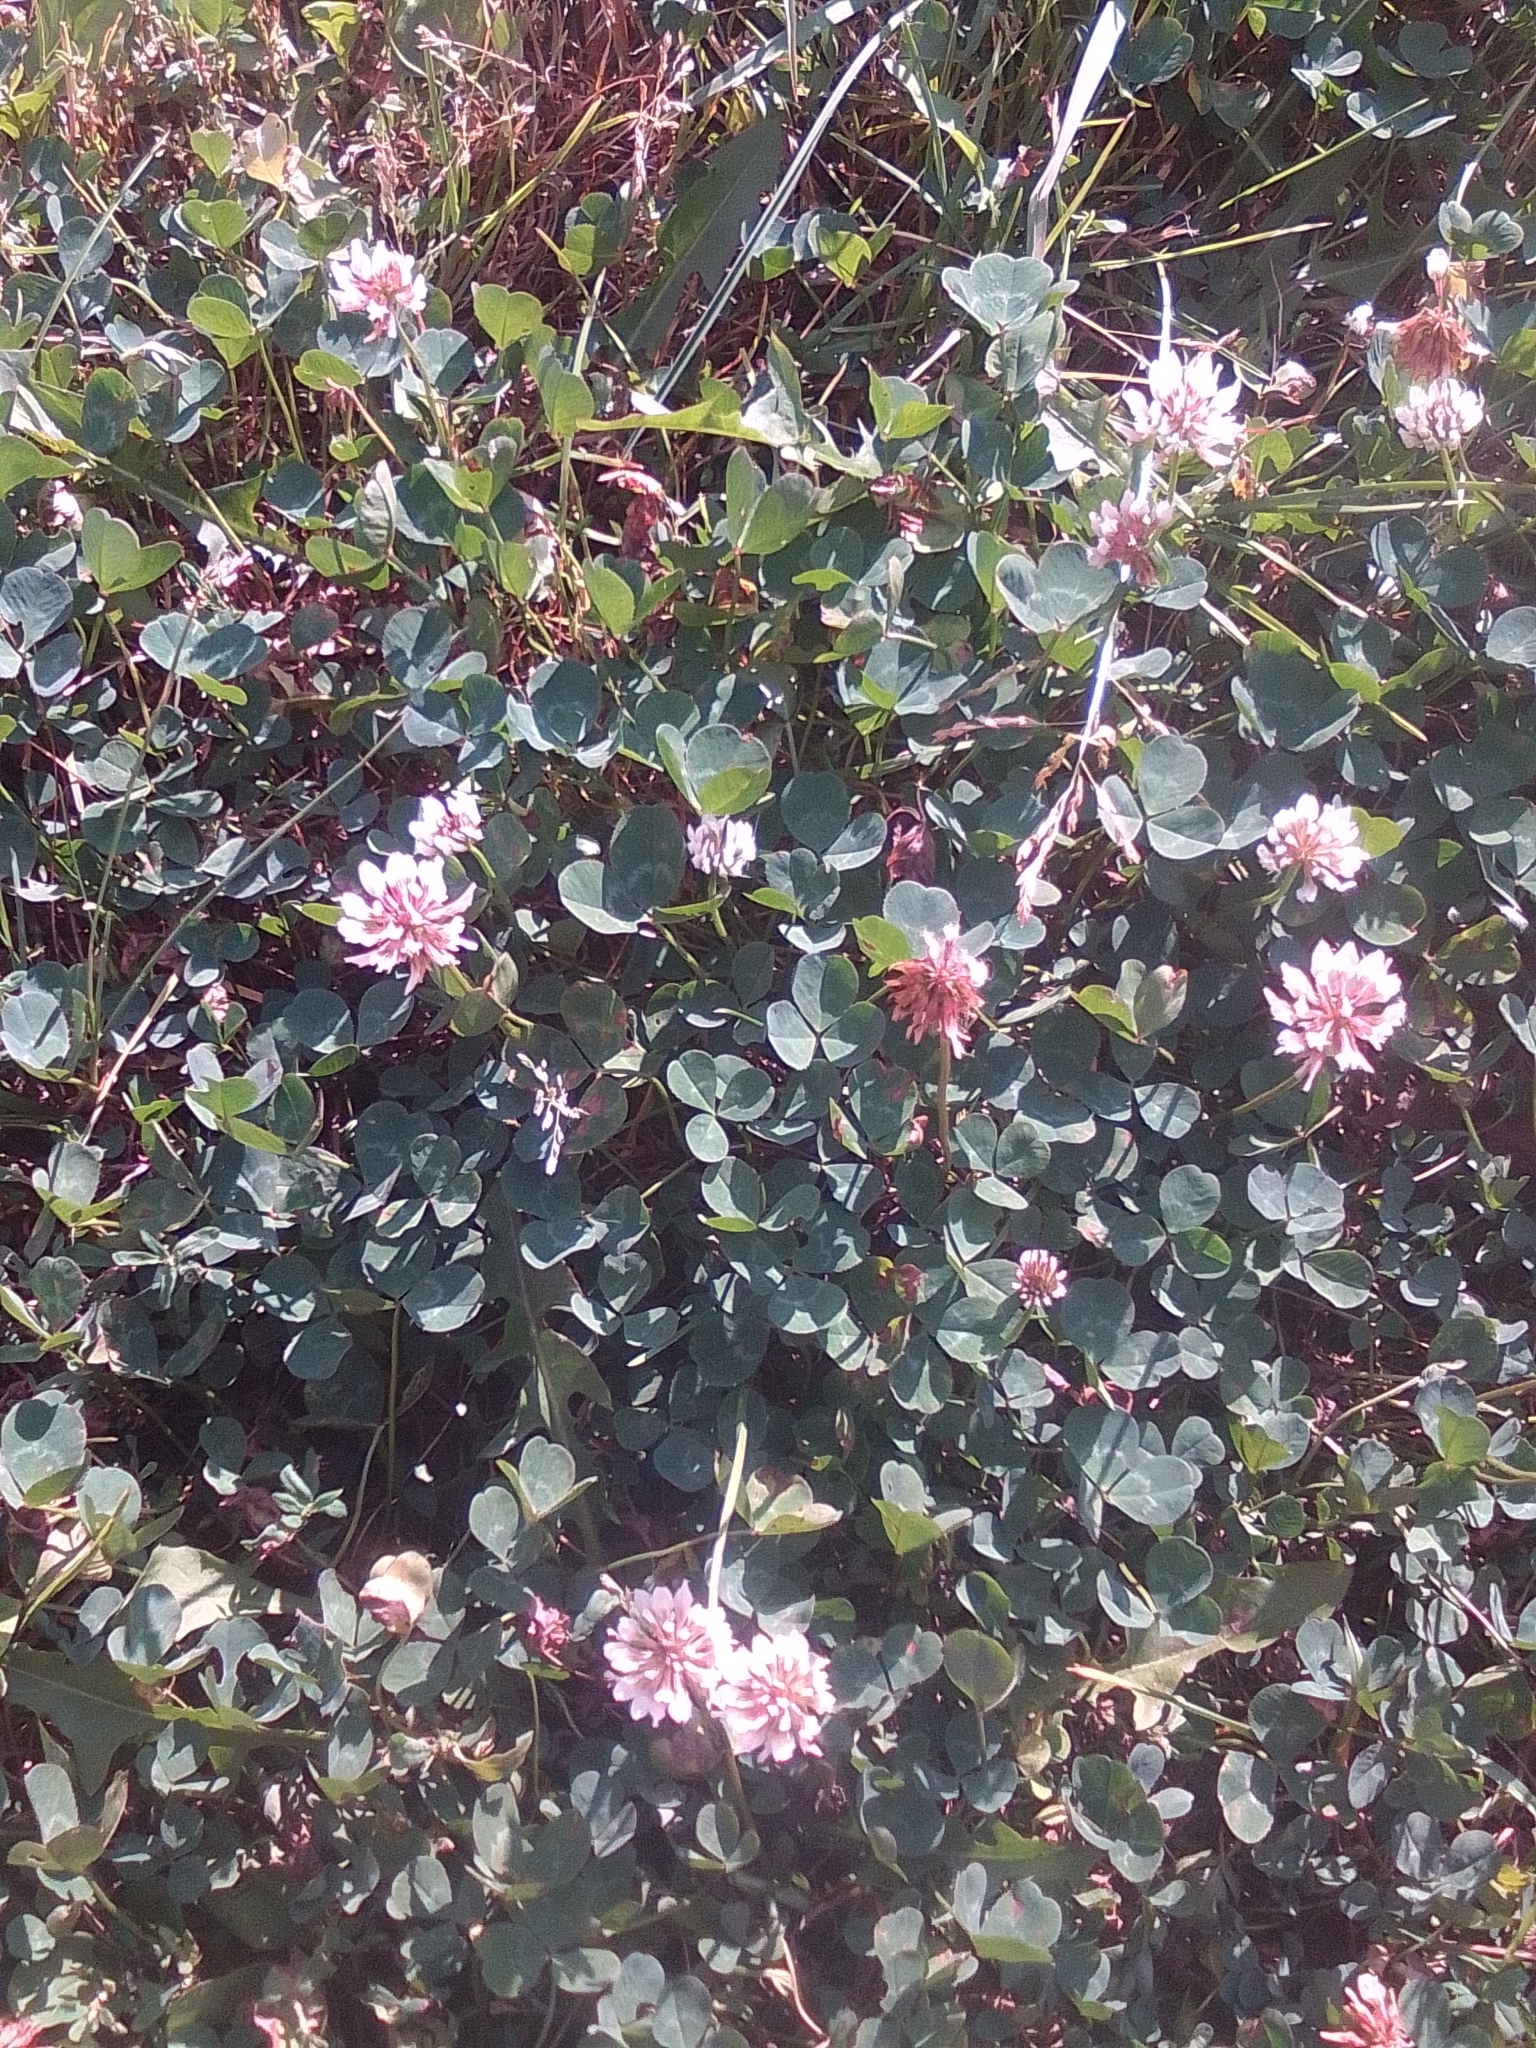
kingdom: Plantae
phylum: Tracheophyta
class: Magnoliopsida
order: Fabales
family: Fabaceae
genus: Trifolium
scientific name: Trifolium repens
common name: White clover
